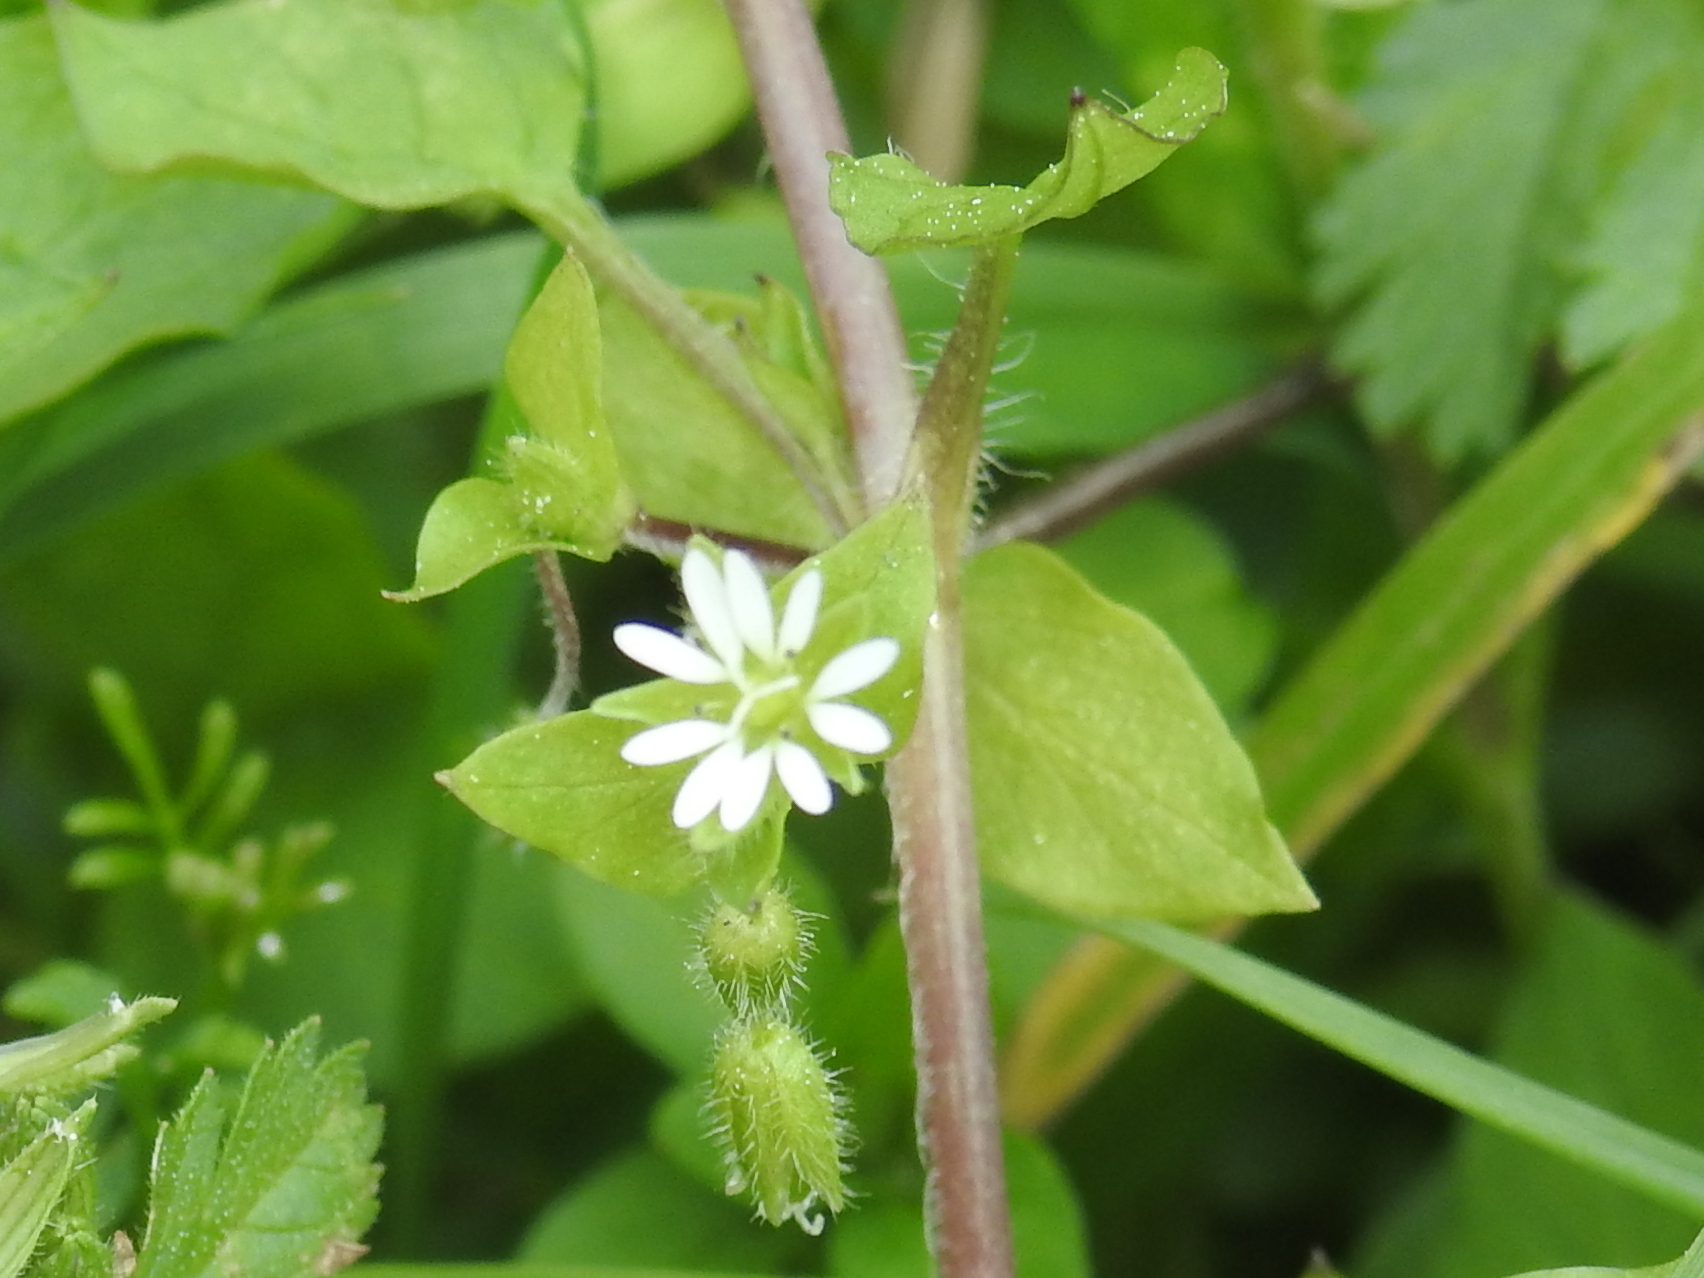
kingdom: Plantae
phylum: Tracheophyta
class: Magnoliopsida
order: Caryophyllales
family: Caryophyllaceae
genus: Stellaria
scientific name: Stellaria media
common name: Common chickweed
